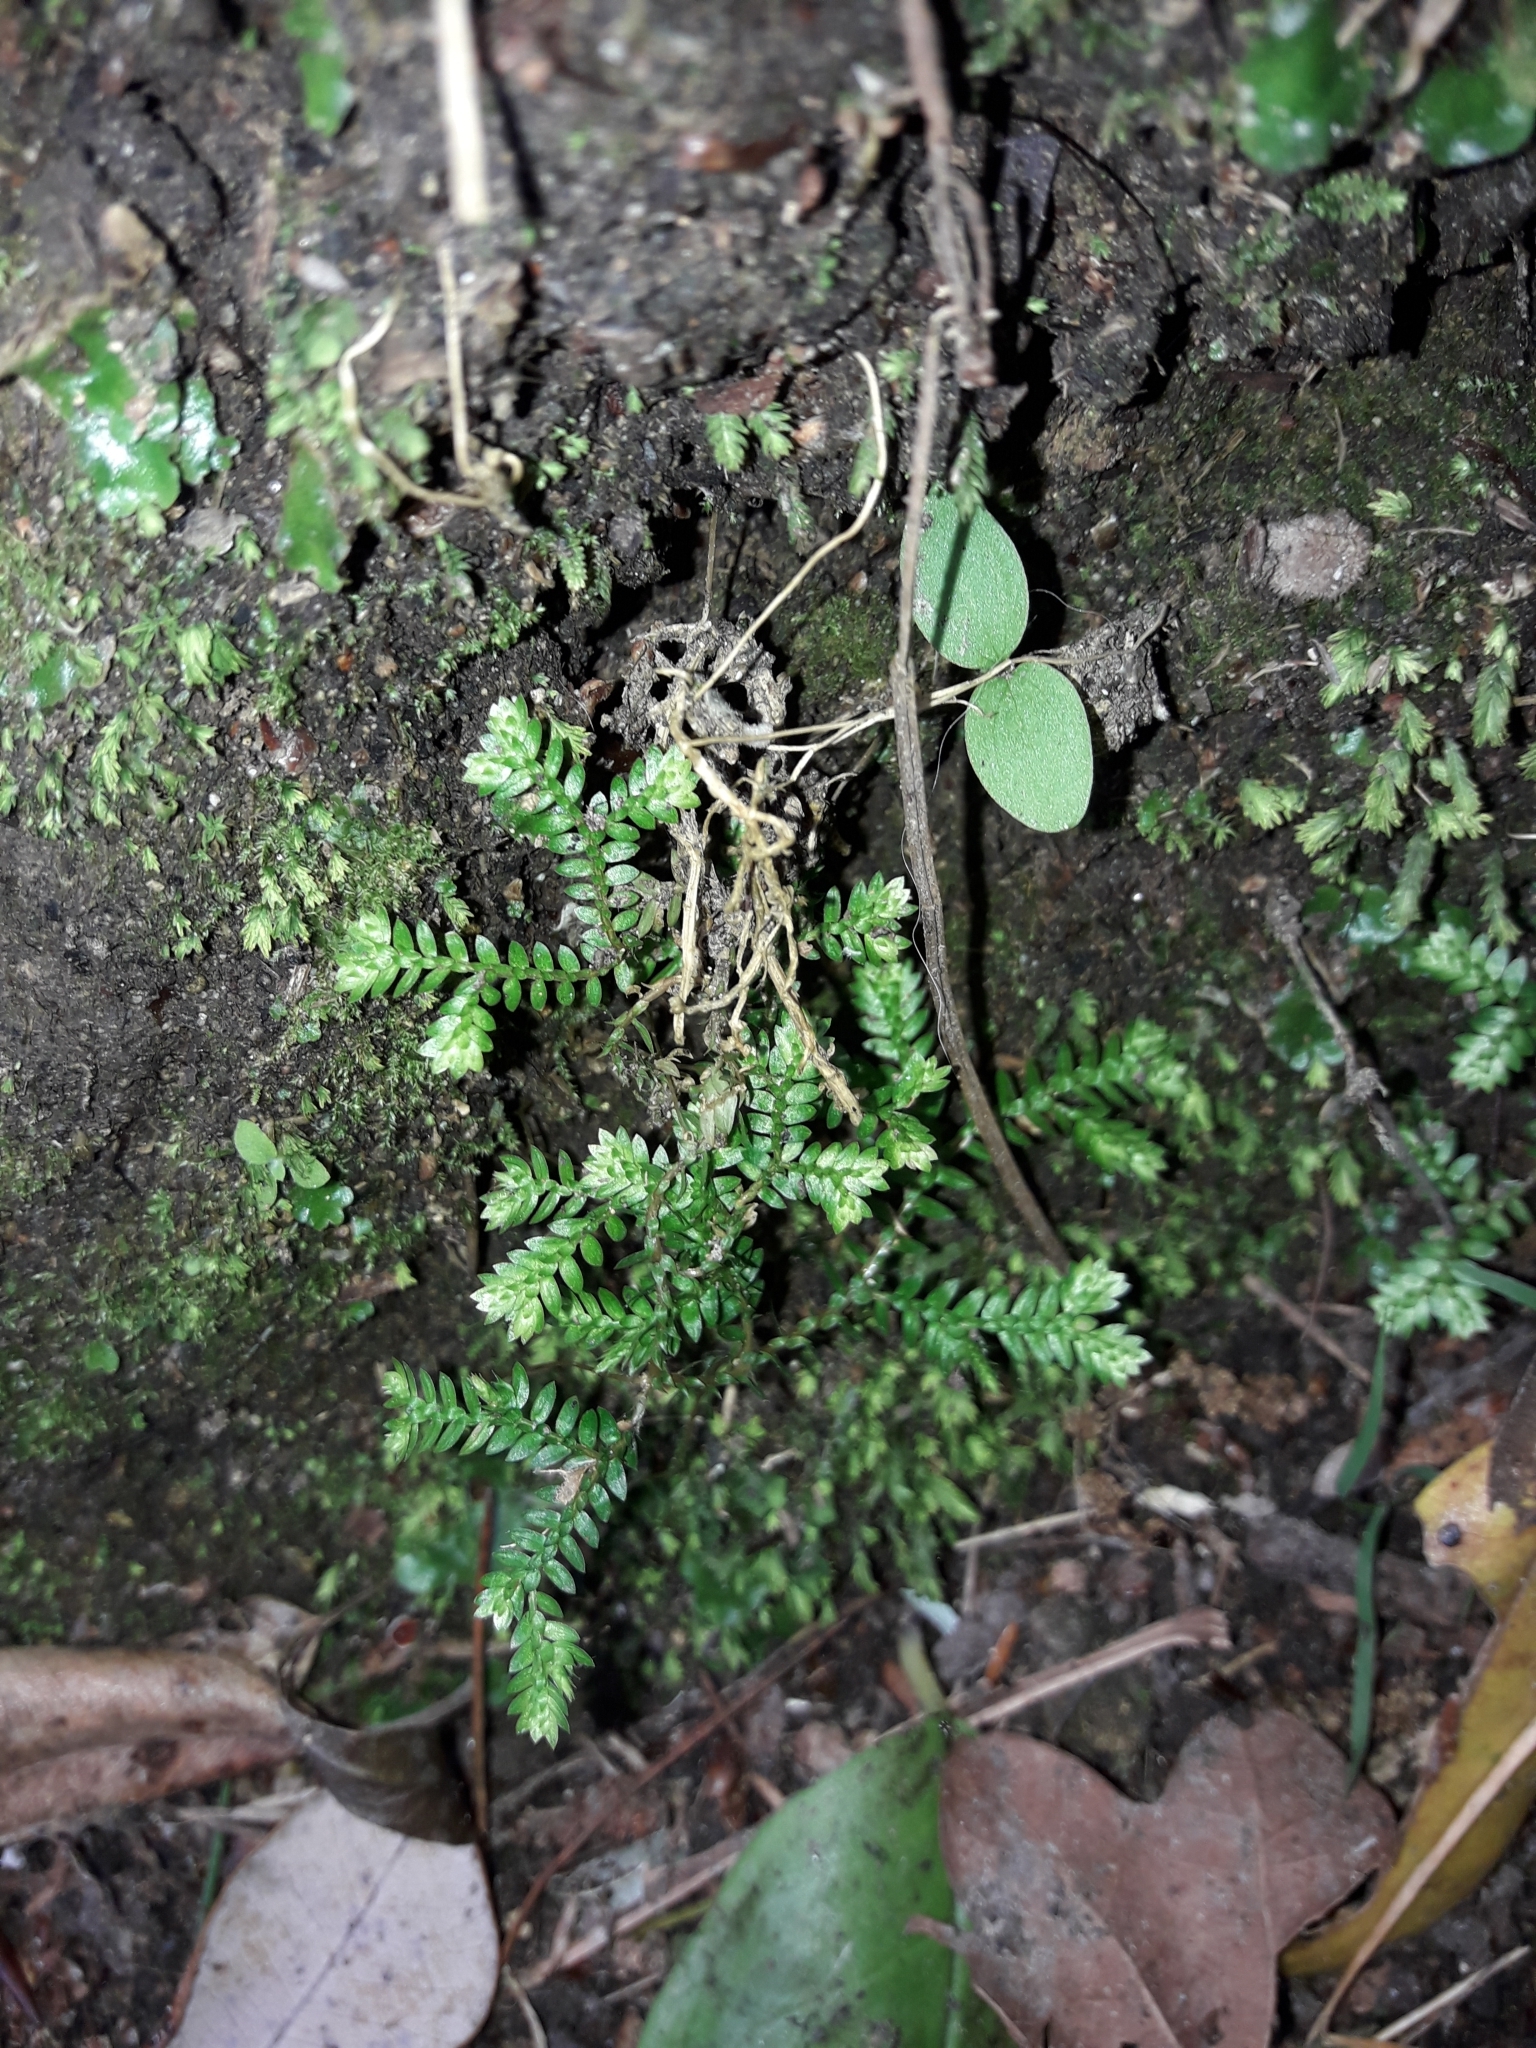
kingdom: Plantae
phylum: Tracheophyta
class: Lycopodiopsida
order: Selaginellales
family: Selaginellaceae
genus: Selaginella
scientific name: Selaginella kraussiana
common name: Krauss' spikemoss
